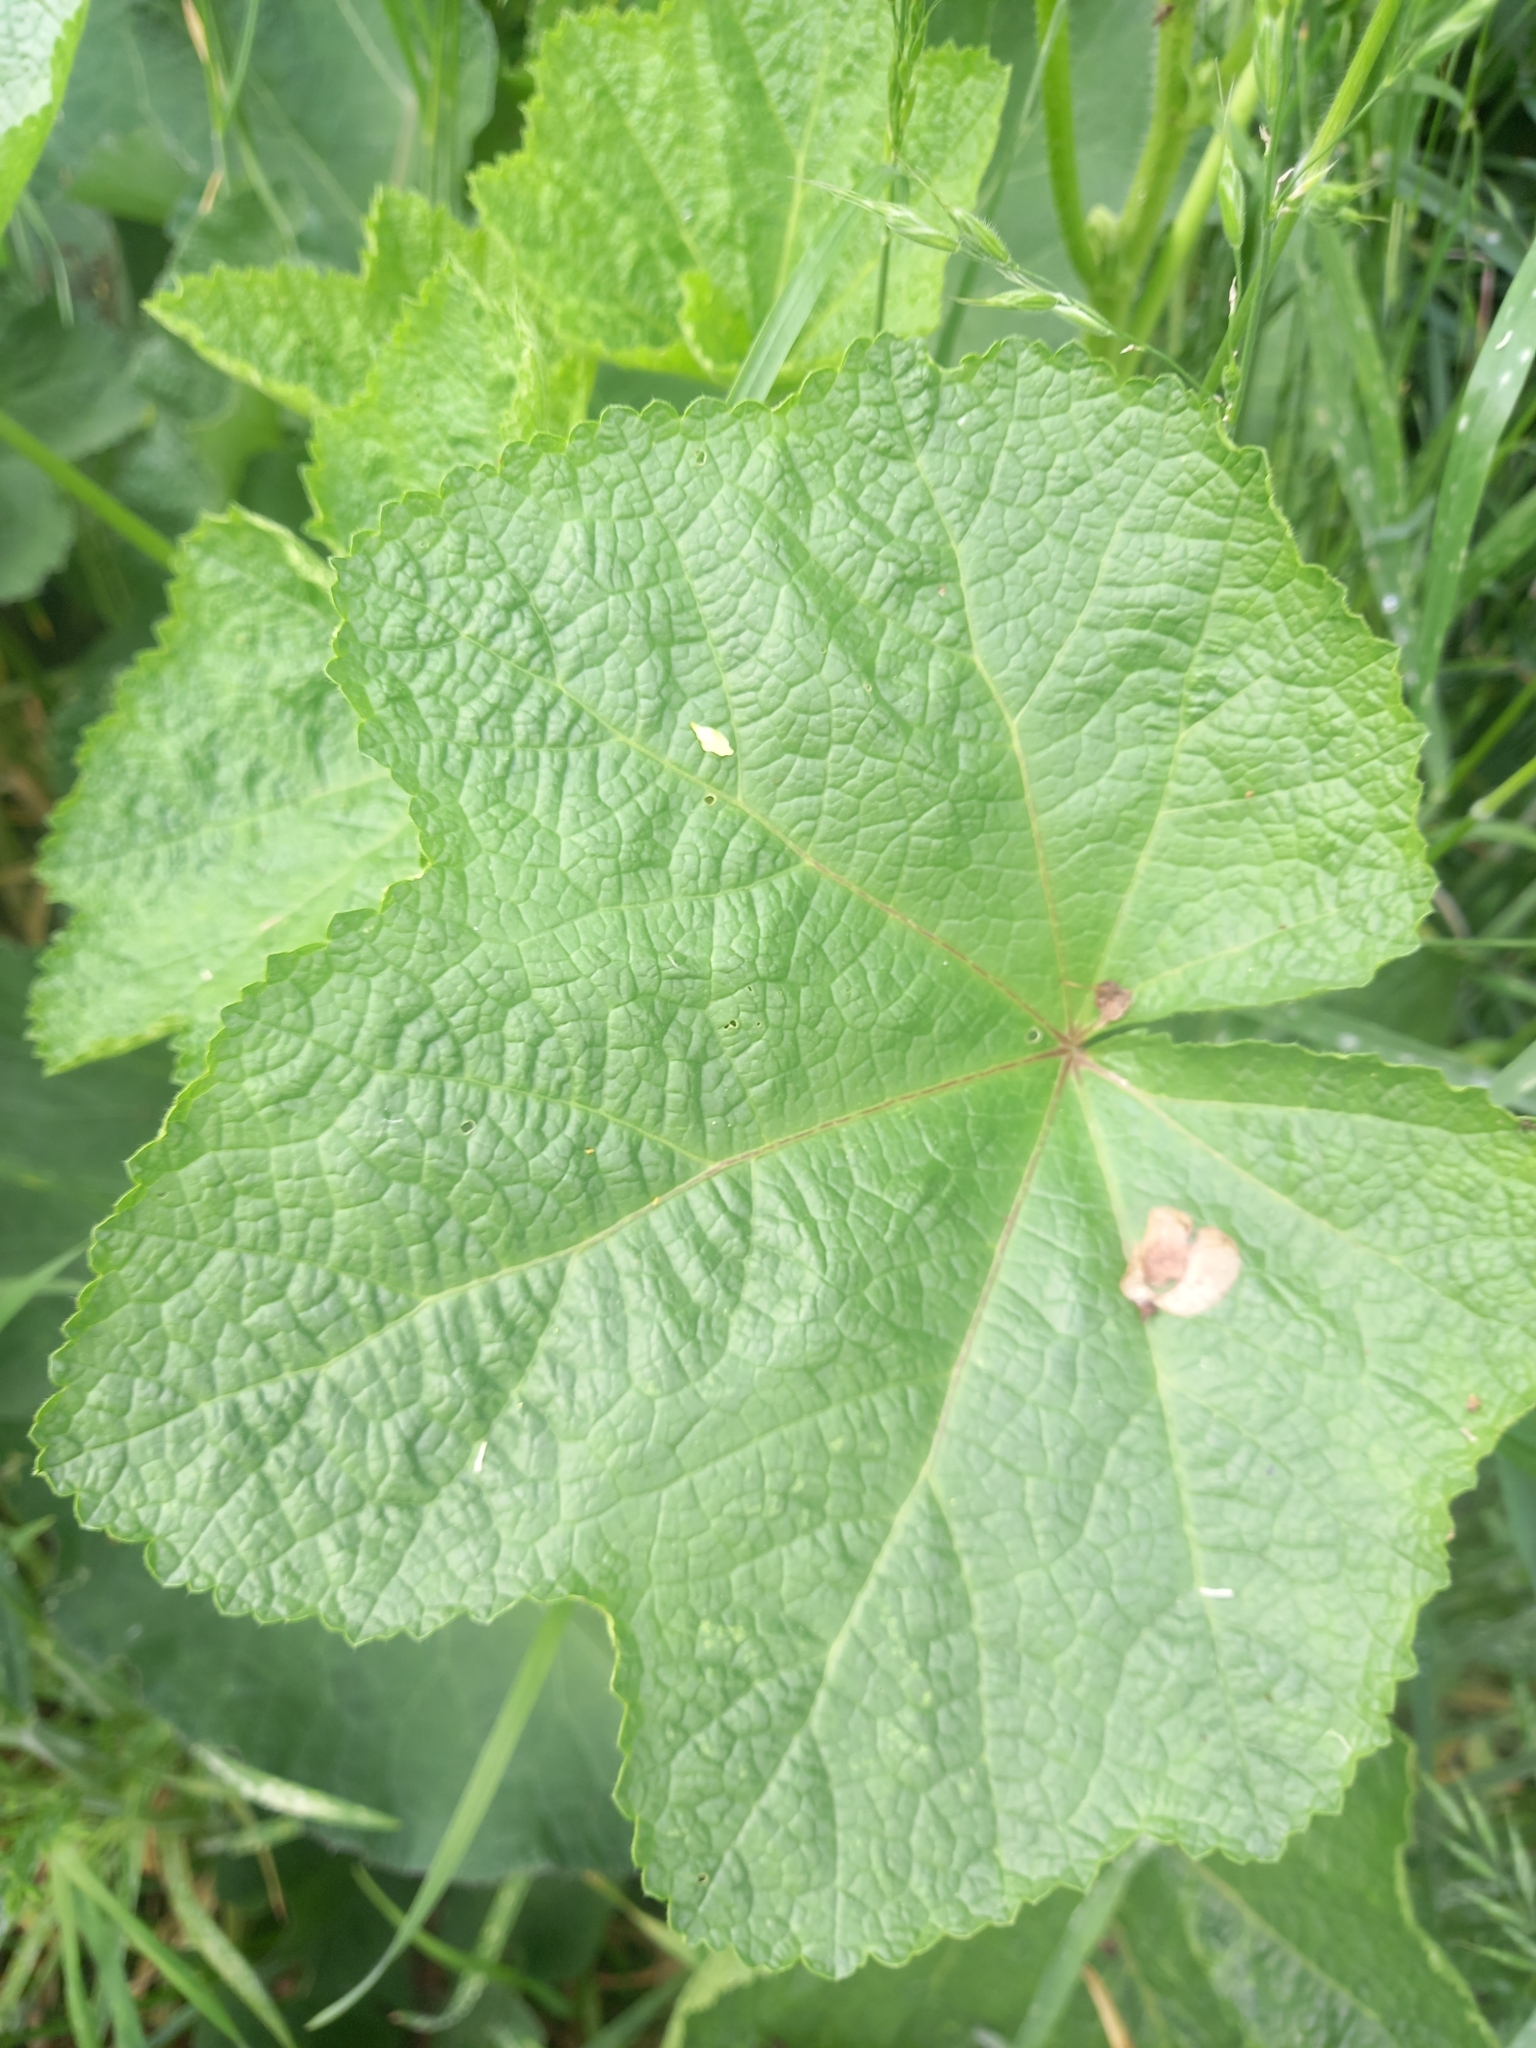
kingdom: Plantae
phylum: Tracheophyta
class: Magnoliopsida
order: Malvales
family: Malvaceae
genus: Alcea
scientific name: Alcea rosea
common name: Hollyhock
